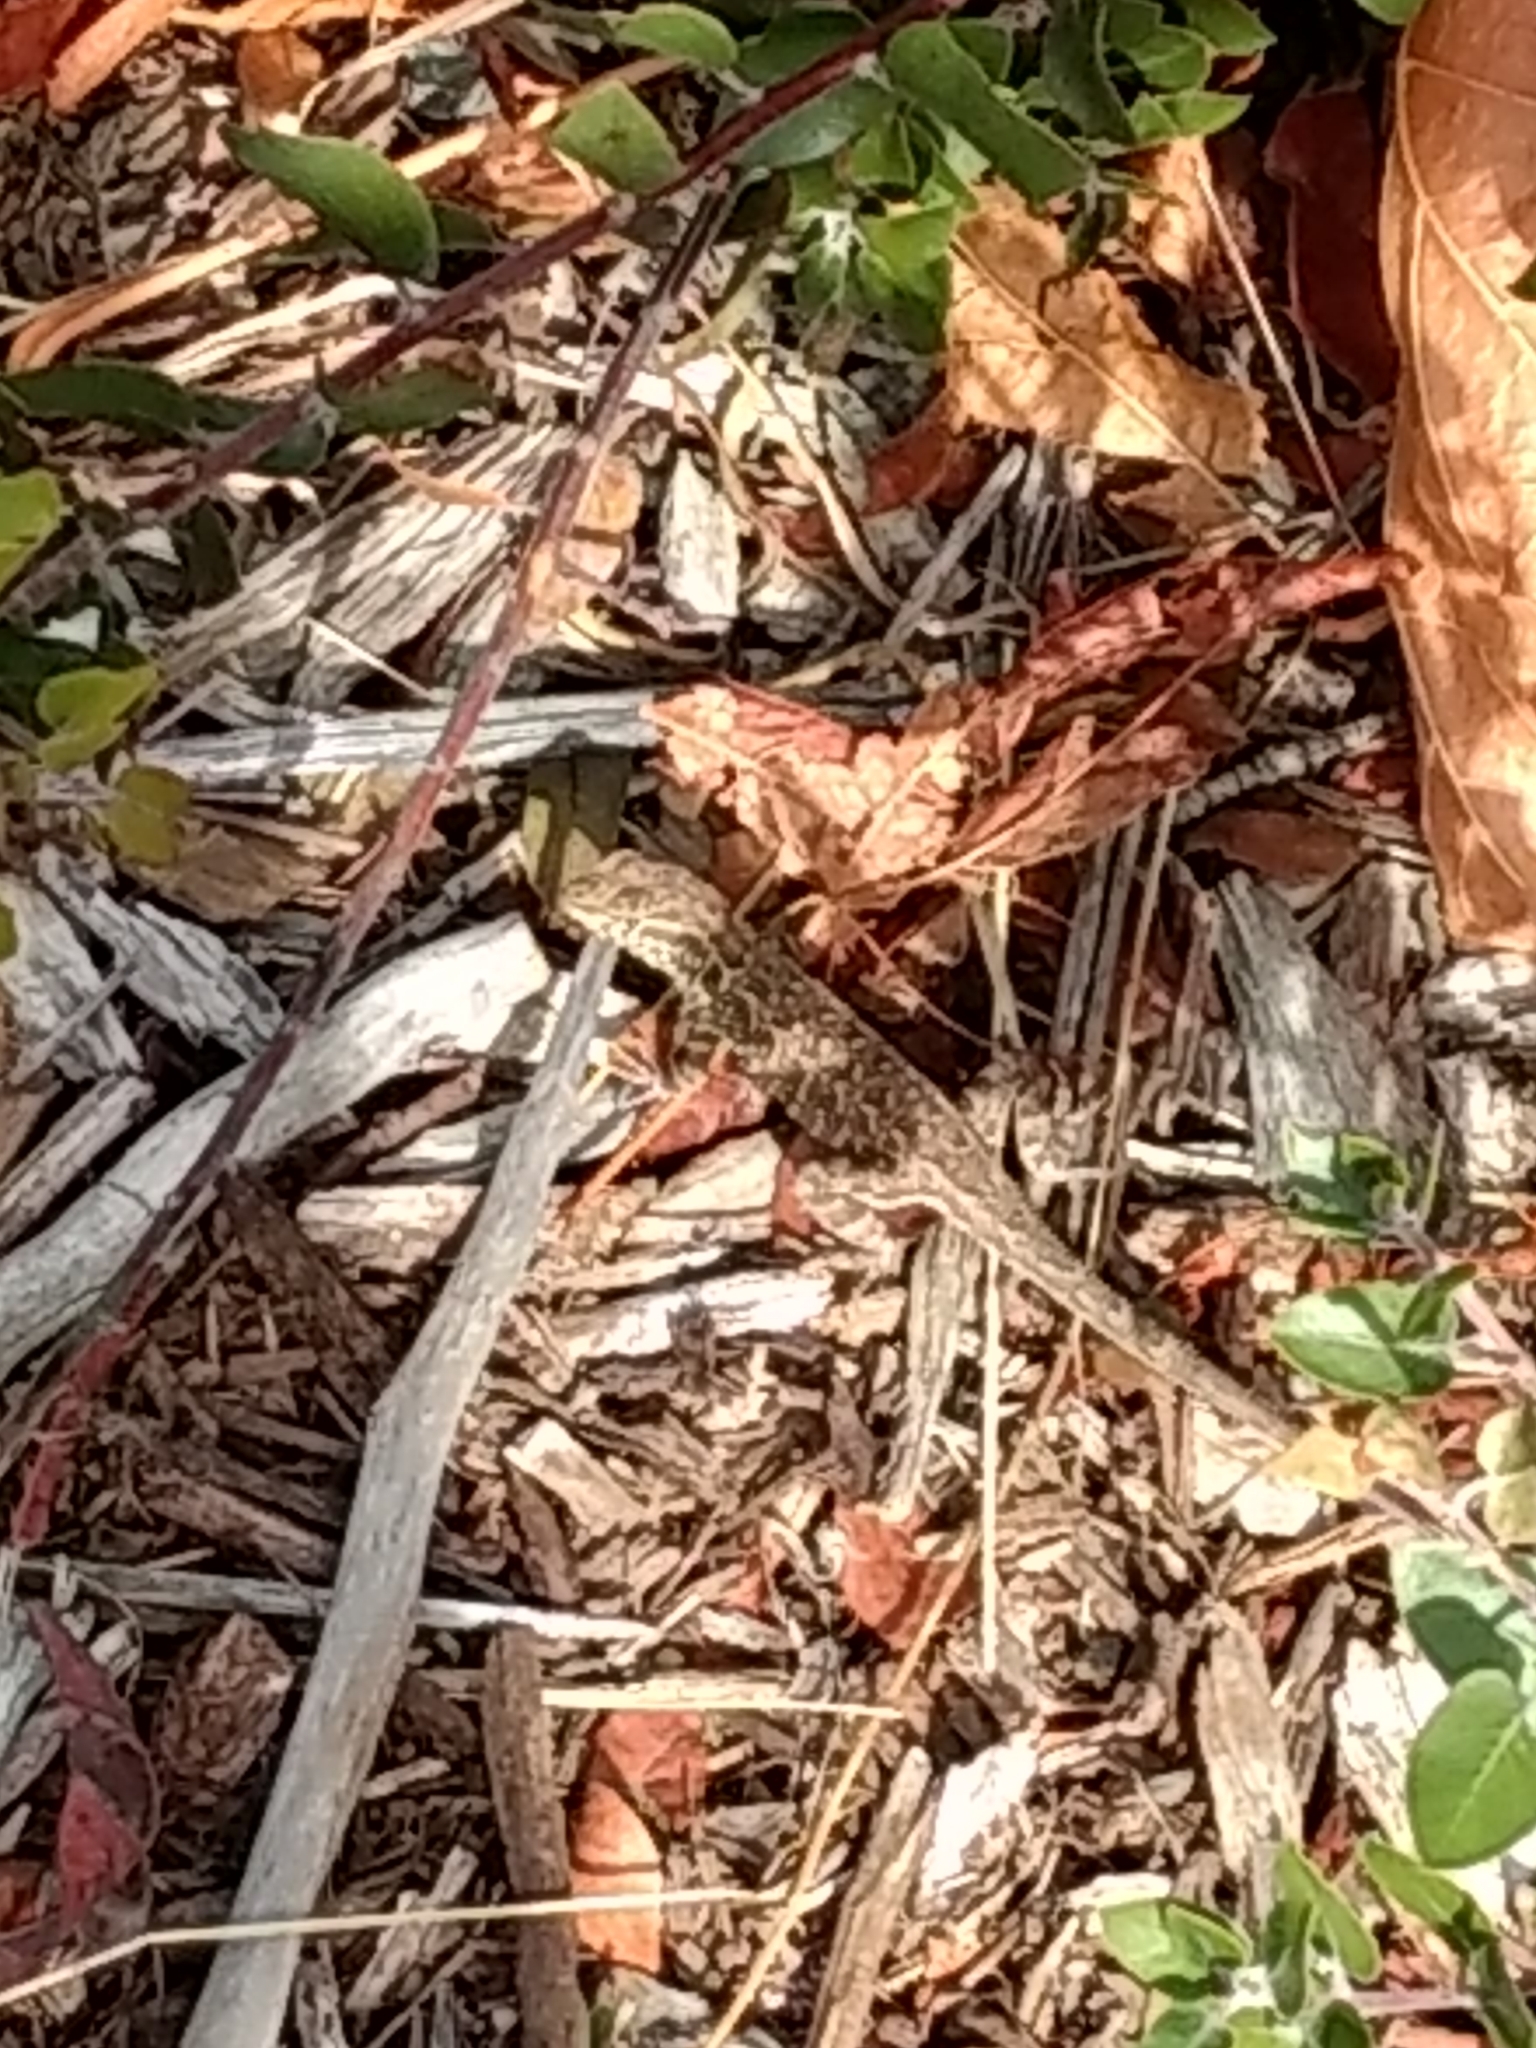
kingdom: Animalia
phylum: Chordata
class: Squamata
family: Phrynosomatidae
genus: Uta
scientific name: Uta stansburiana
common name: Side-blotched lizard
